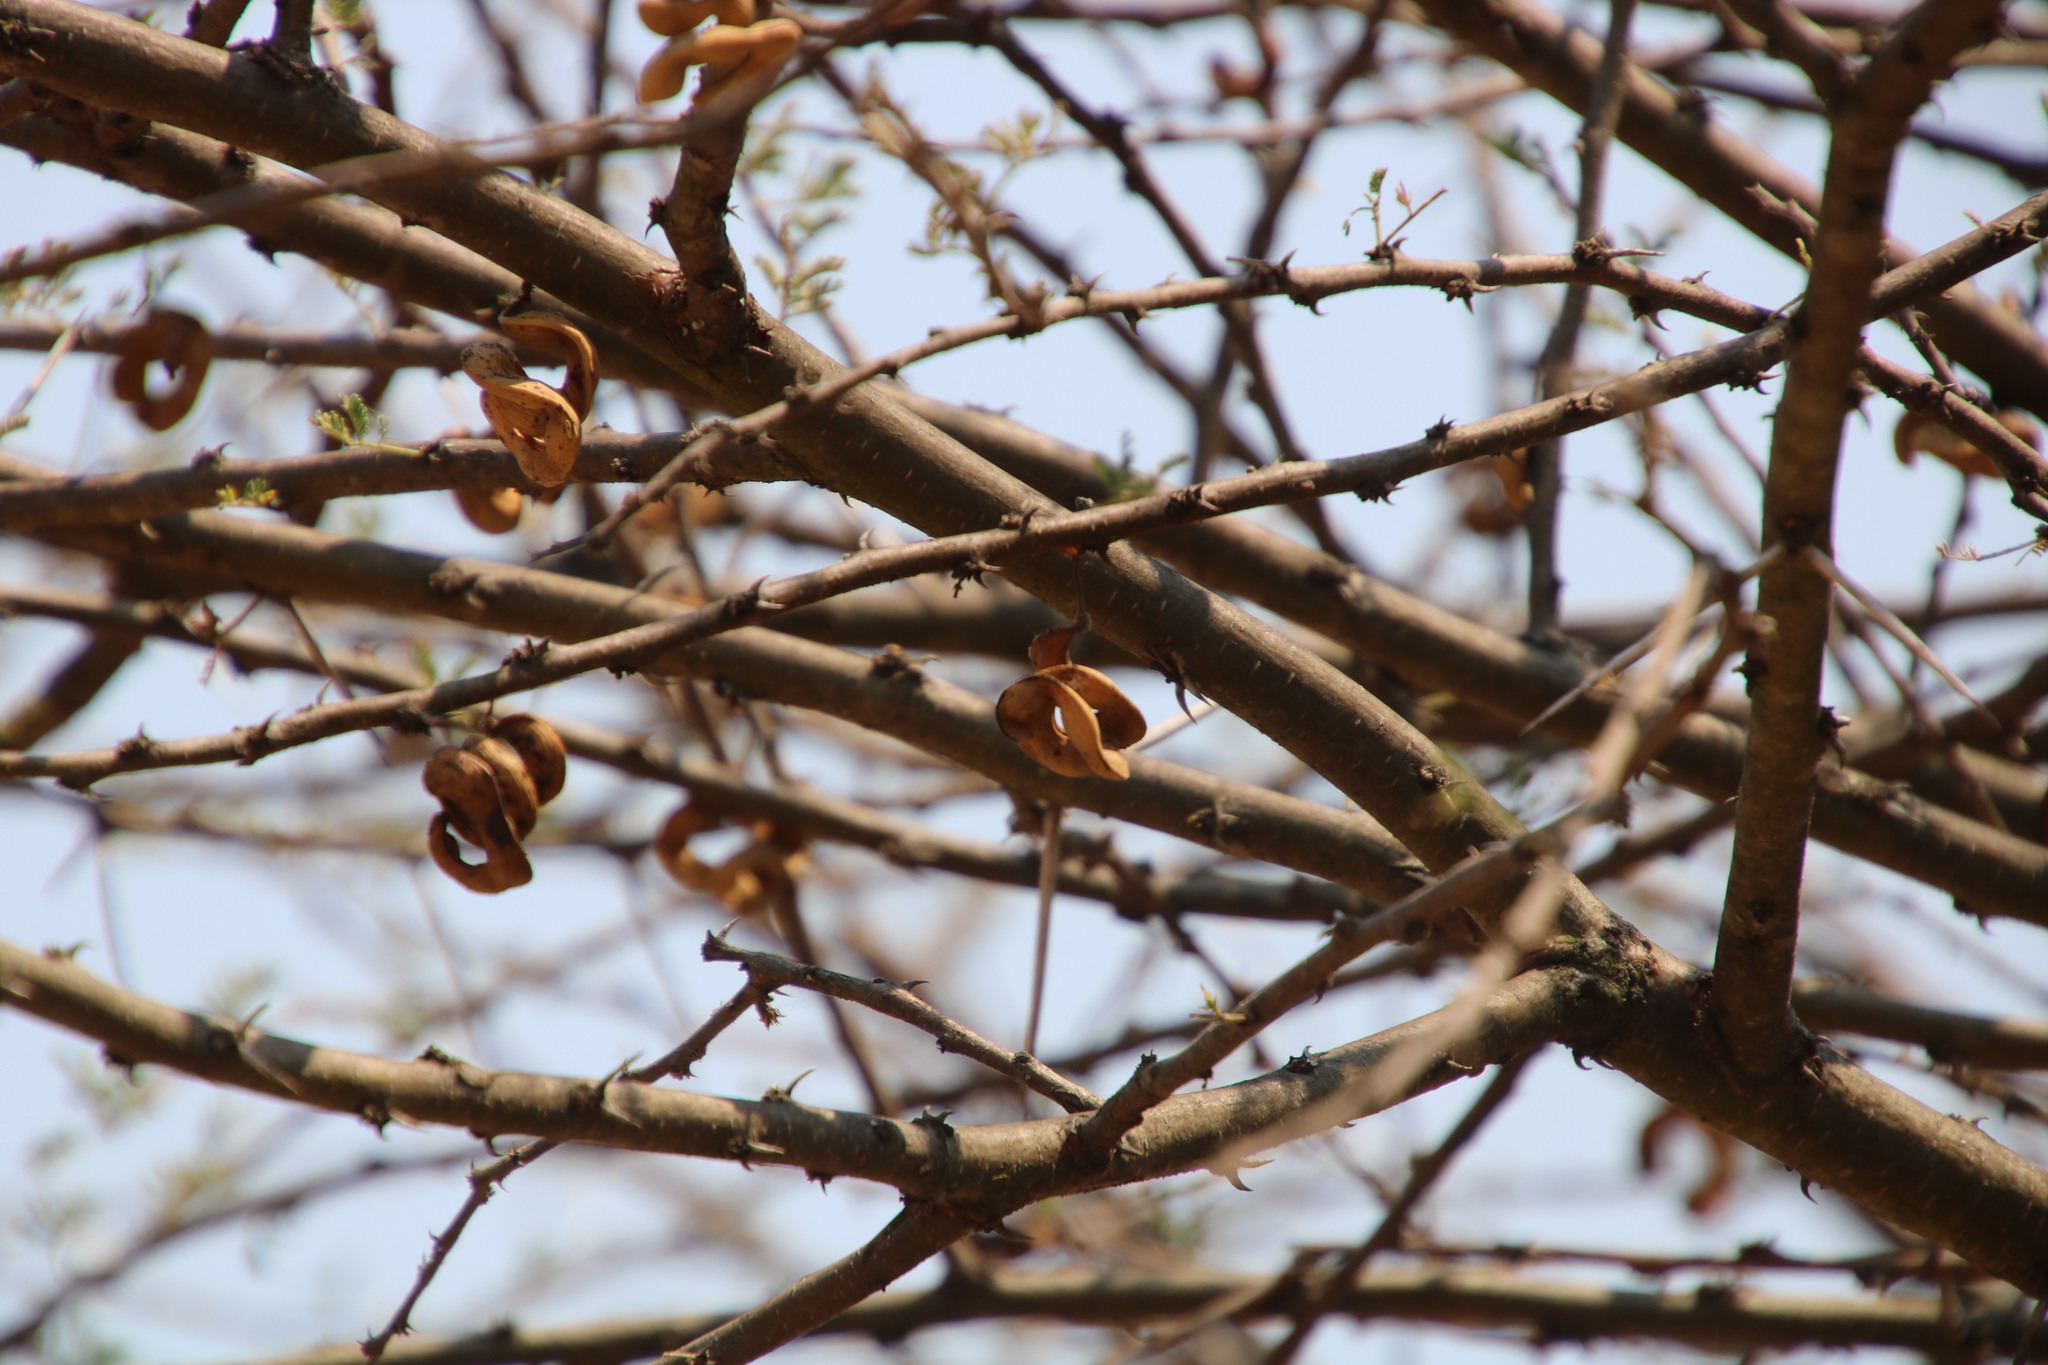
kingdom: Plantae
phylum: Tracheophyta
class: Magnoliopsida
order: Fabales
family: Fabaceae
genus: Vachellia
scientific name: Vachellia tortilis
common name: Umbrella thorn acacia
